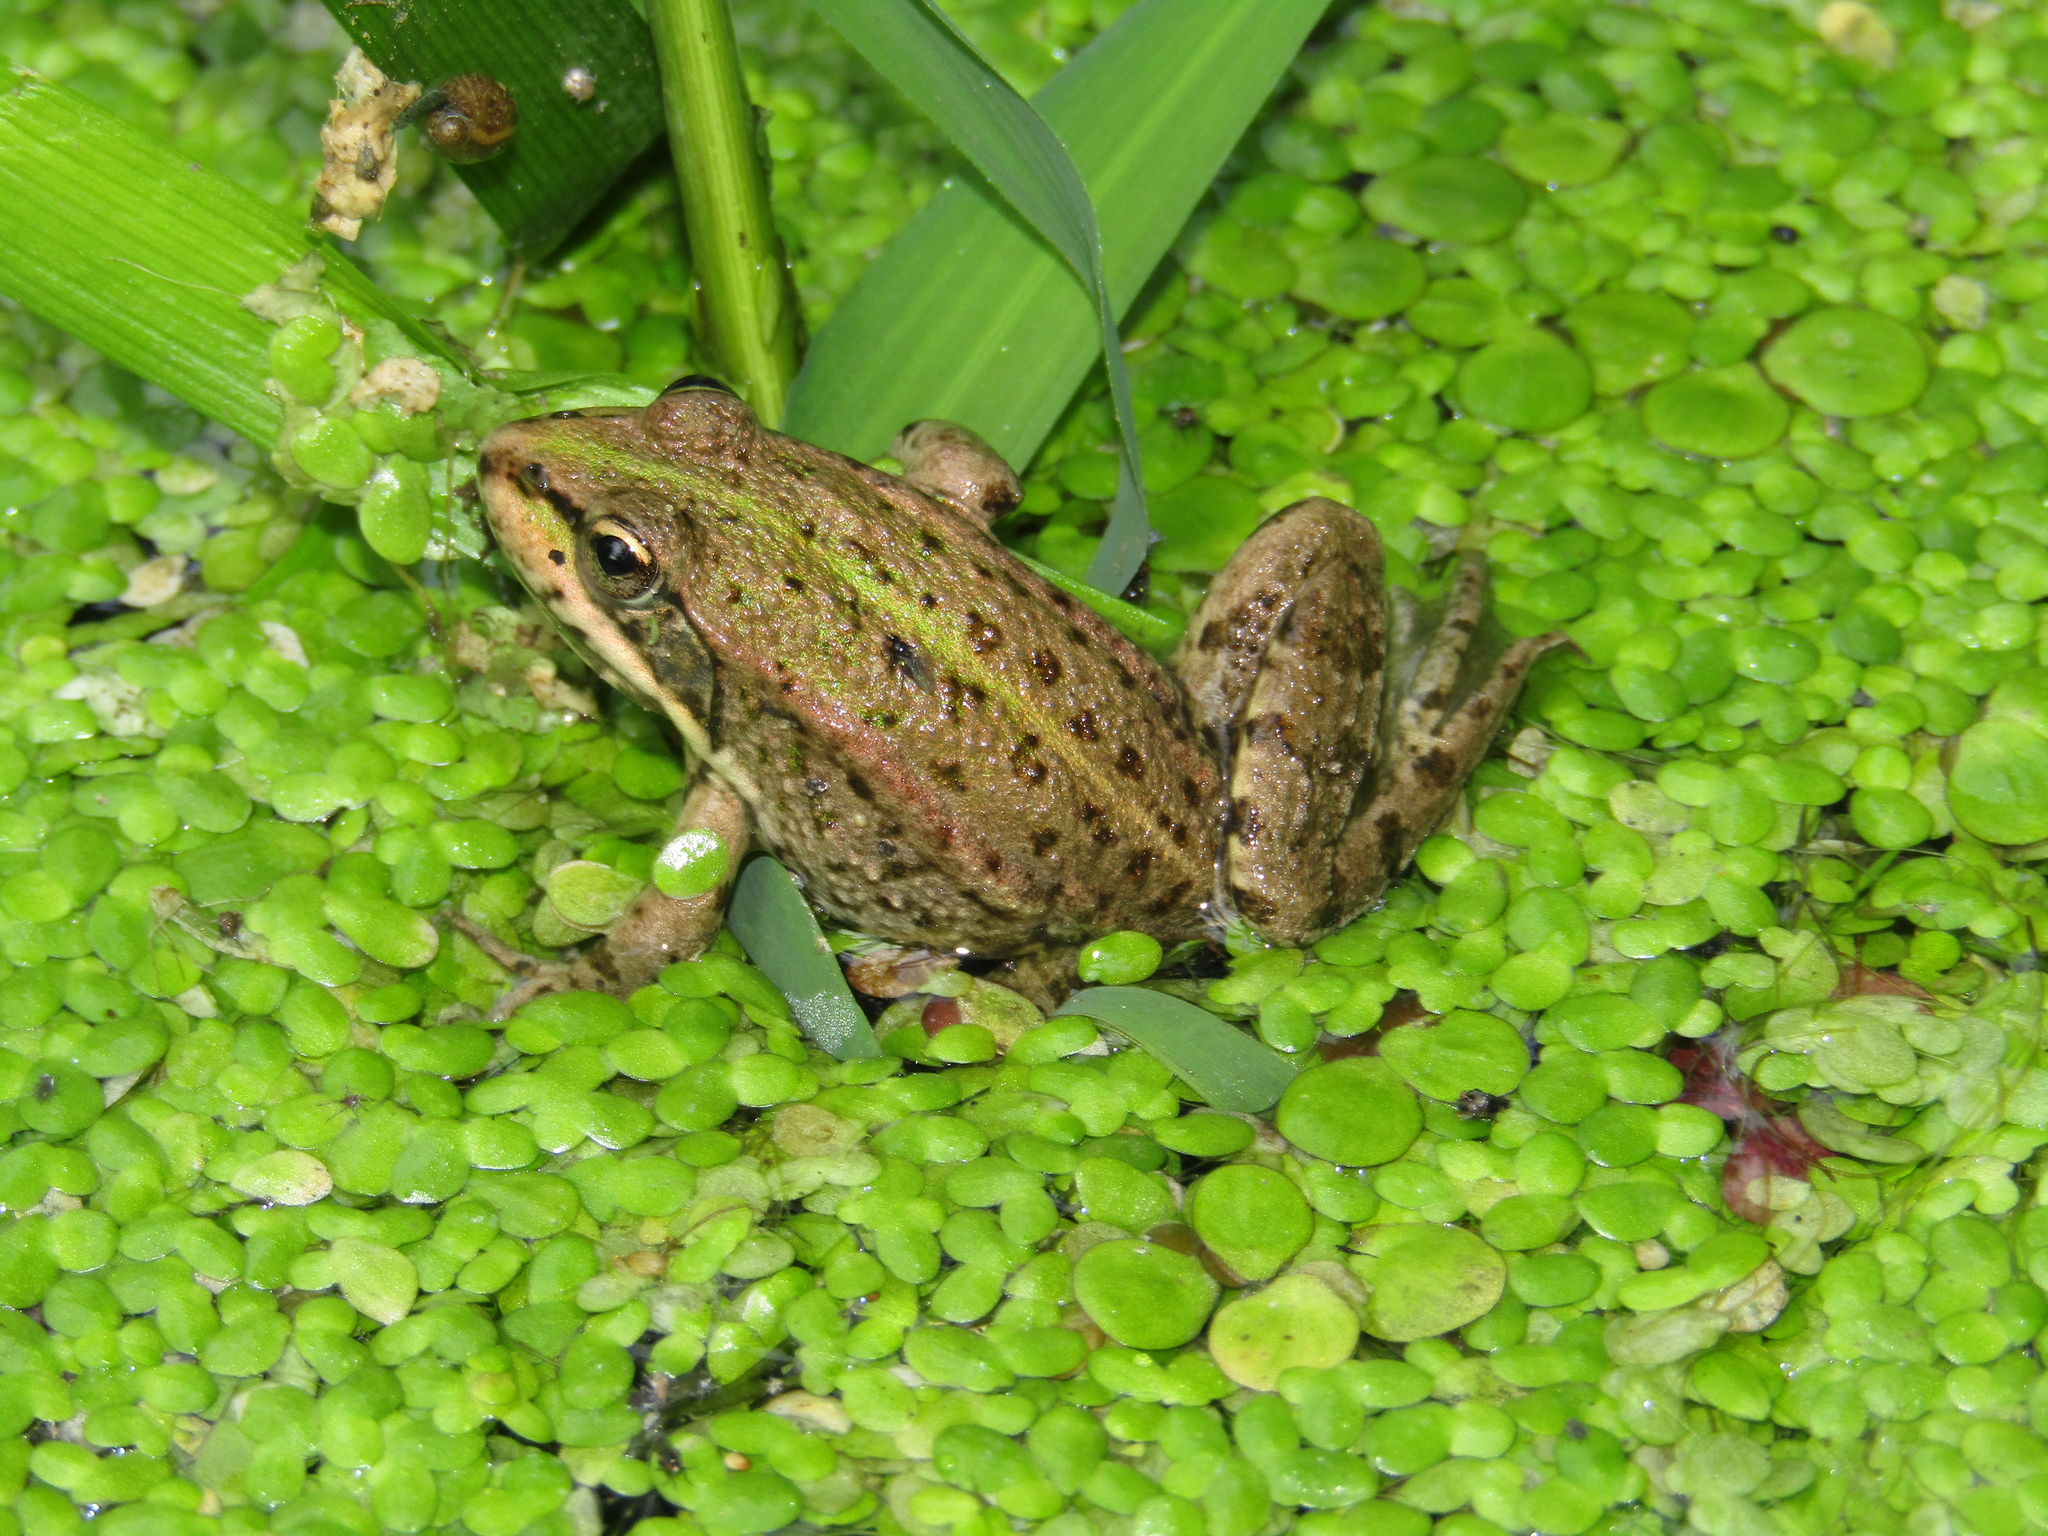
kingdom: Animalia
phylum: Chordata
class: Amphibia
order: Anura
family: Ranidae
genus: Pelophylax
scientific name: Pelophylax ridibundus
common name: Marsh frog
